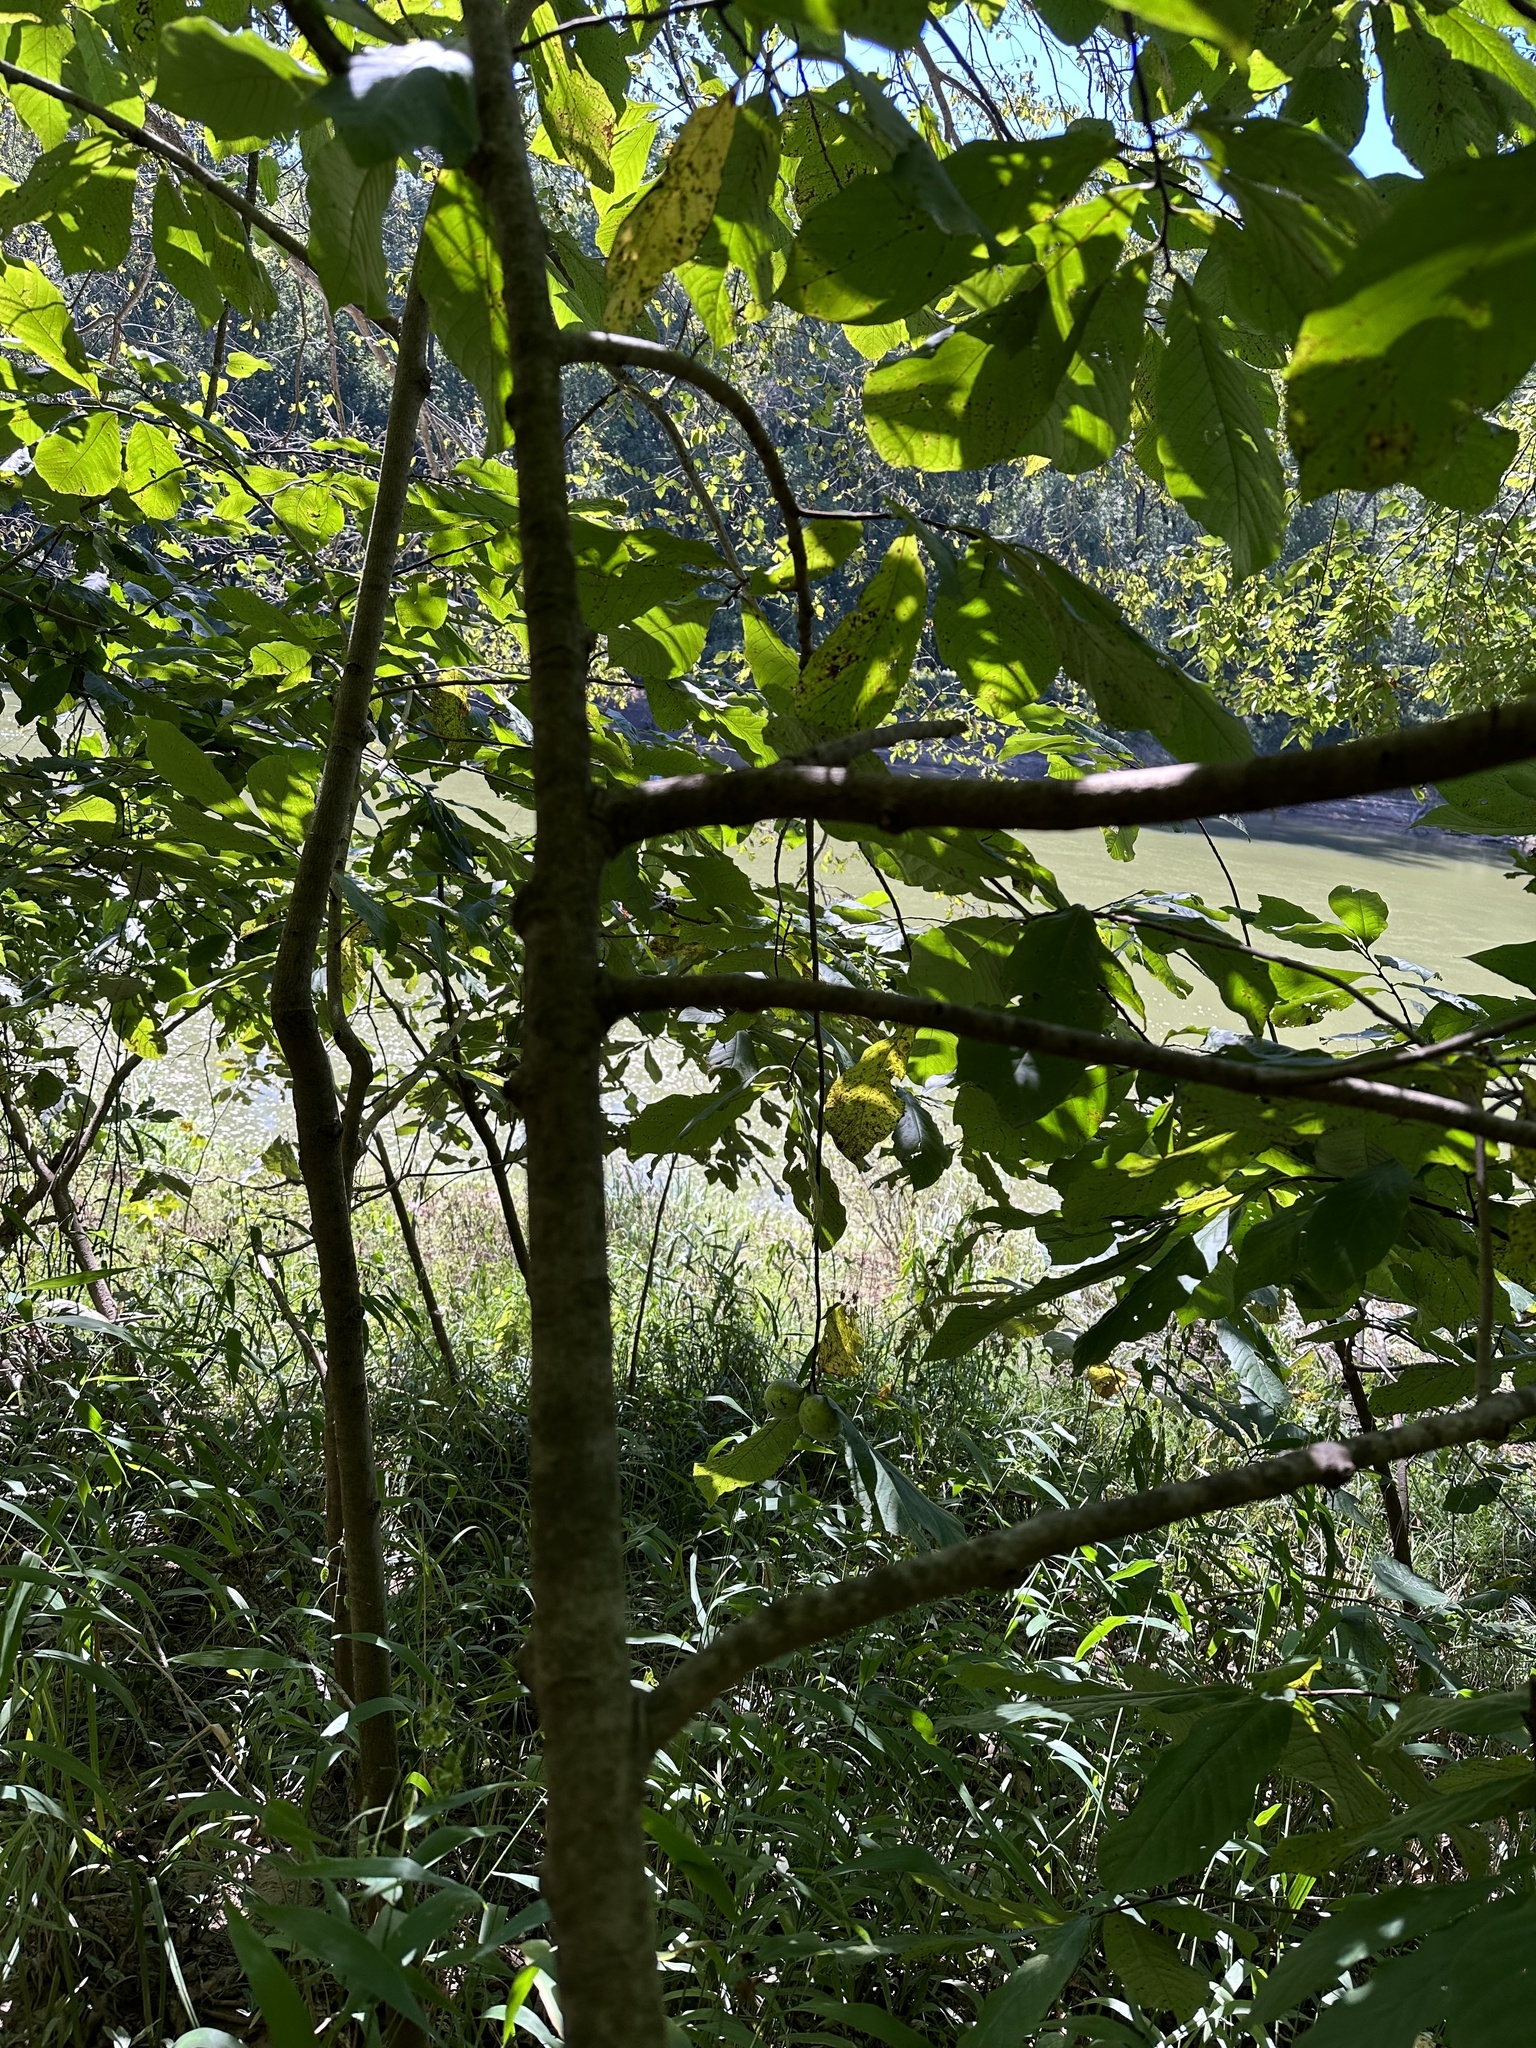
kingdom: Plantae
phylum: Tracheophyta
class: Magnoliopsida
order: Magnoliales
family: Annonaceae
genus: Asimina
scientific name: Asimina triloba
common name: Dog-banana
